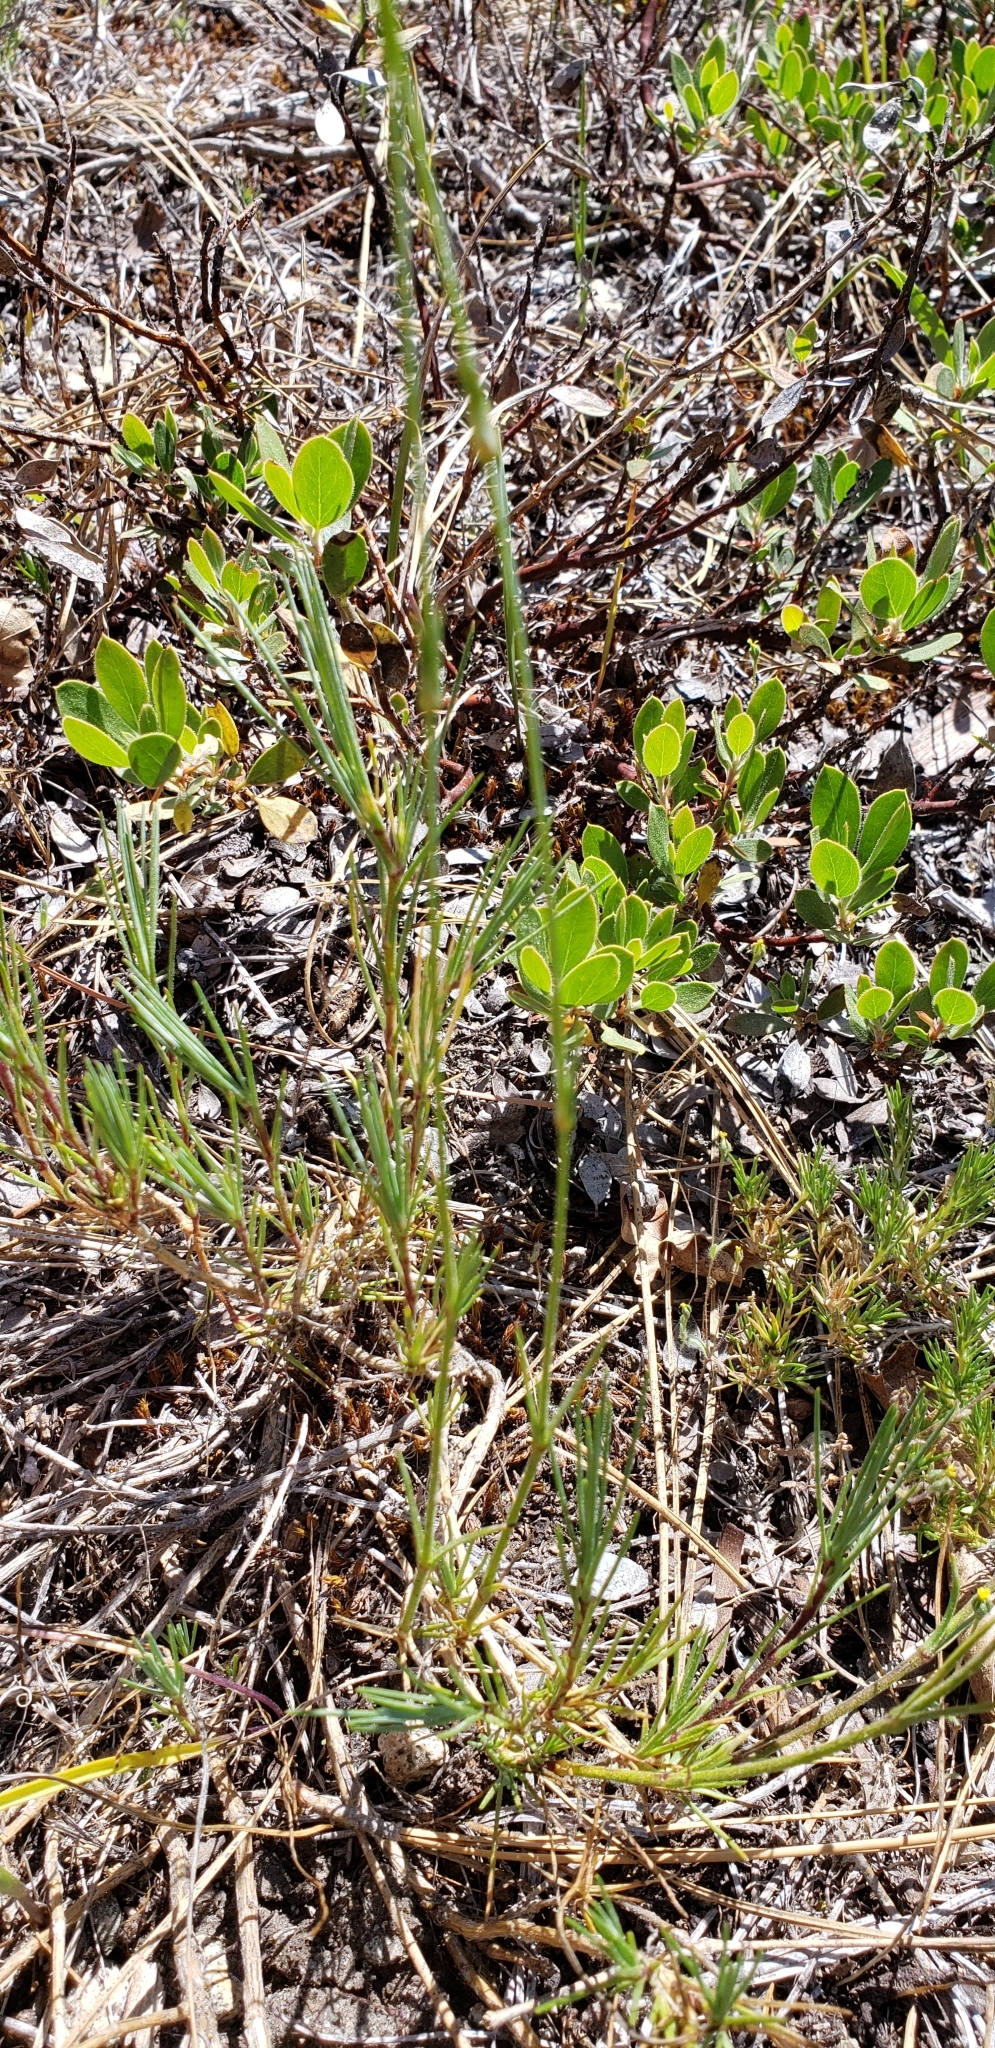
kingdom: Plantae
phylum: Tracheophyta
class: Magnoliopsida
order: Caryophyllales
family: Caryophyllaceae
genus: Eremogone
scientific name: Eremogone congesta
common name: Ballhead sandwort
